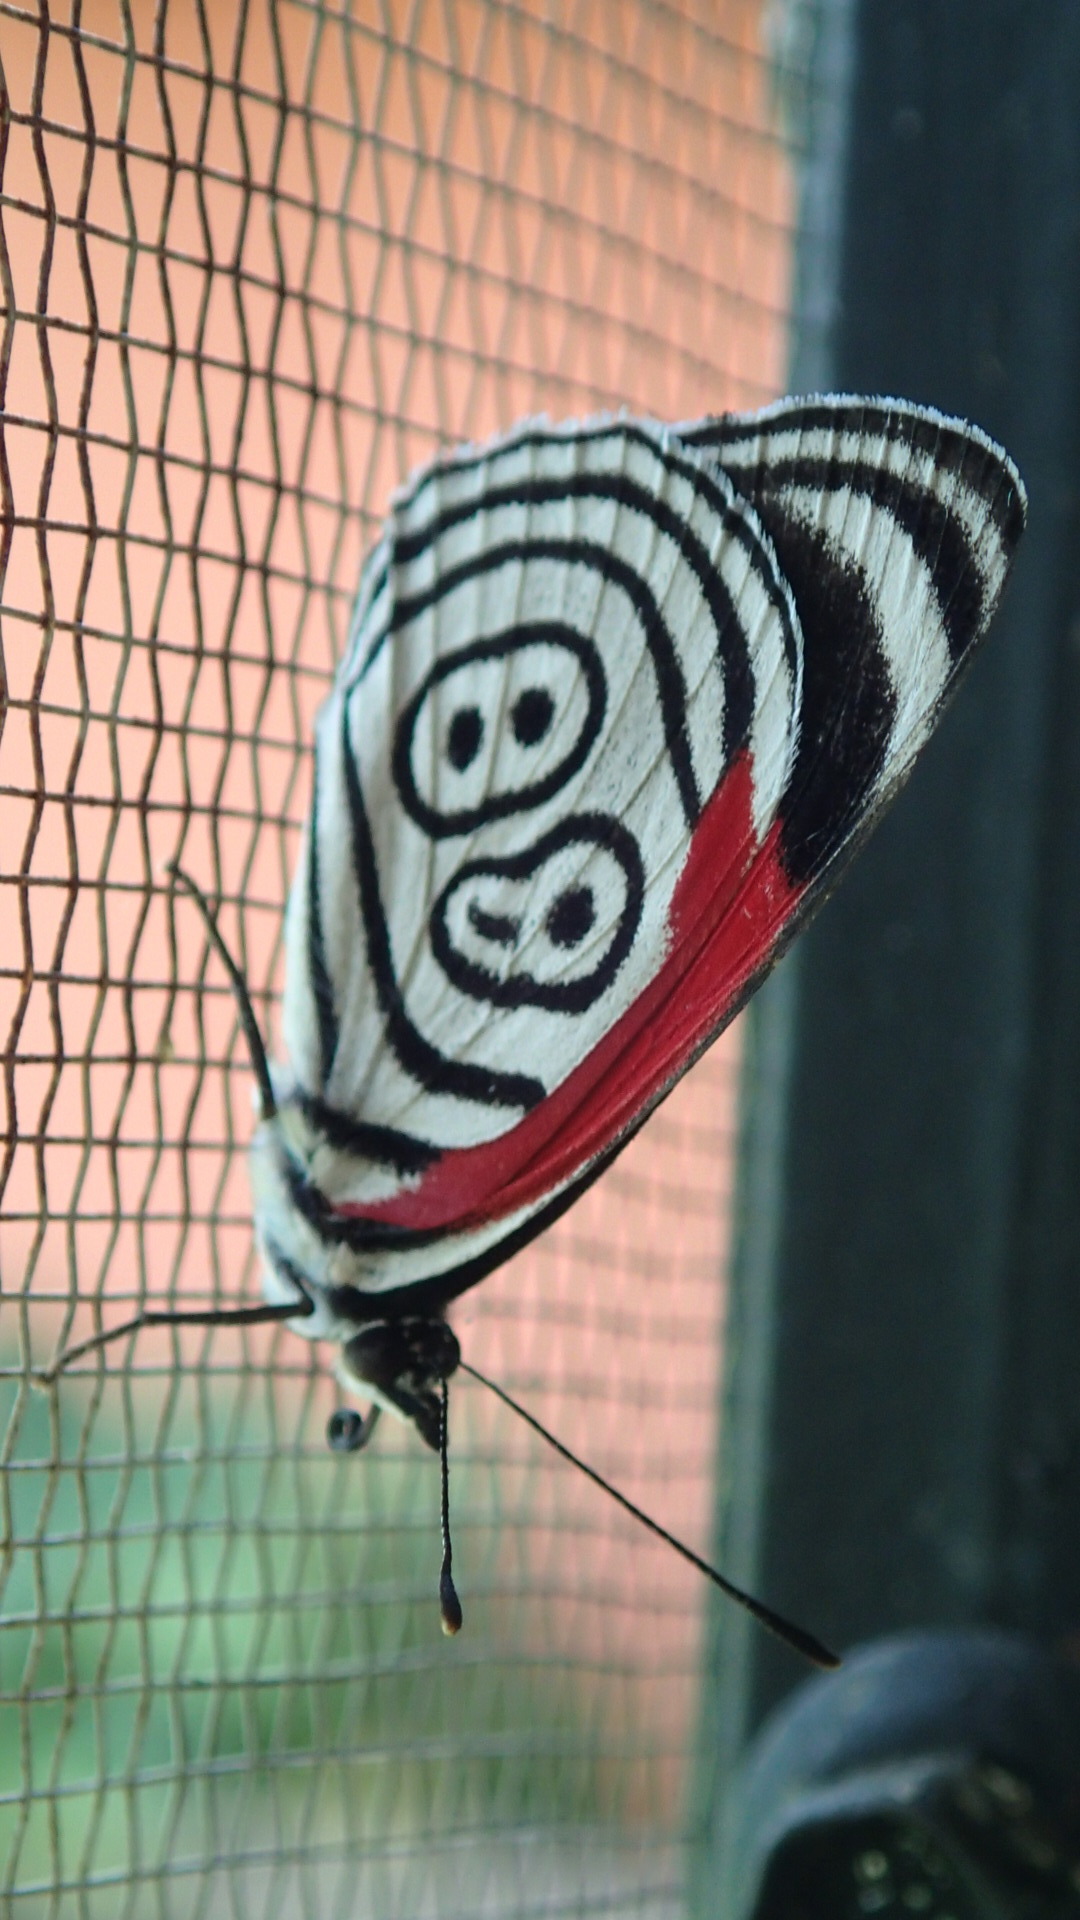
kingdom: Animalia
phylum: Arthropoda
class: Insecta
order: Lepidoptera
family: Nymphalidae
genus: Diaethria
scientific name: Diaethria clymena
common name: Widespread eighty-eight
